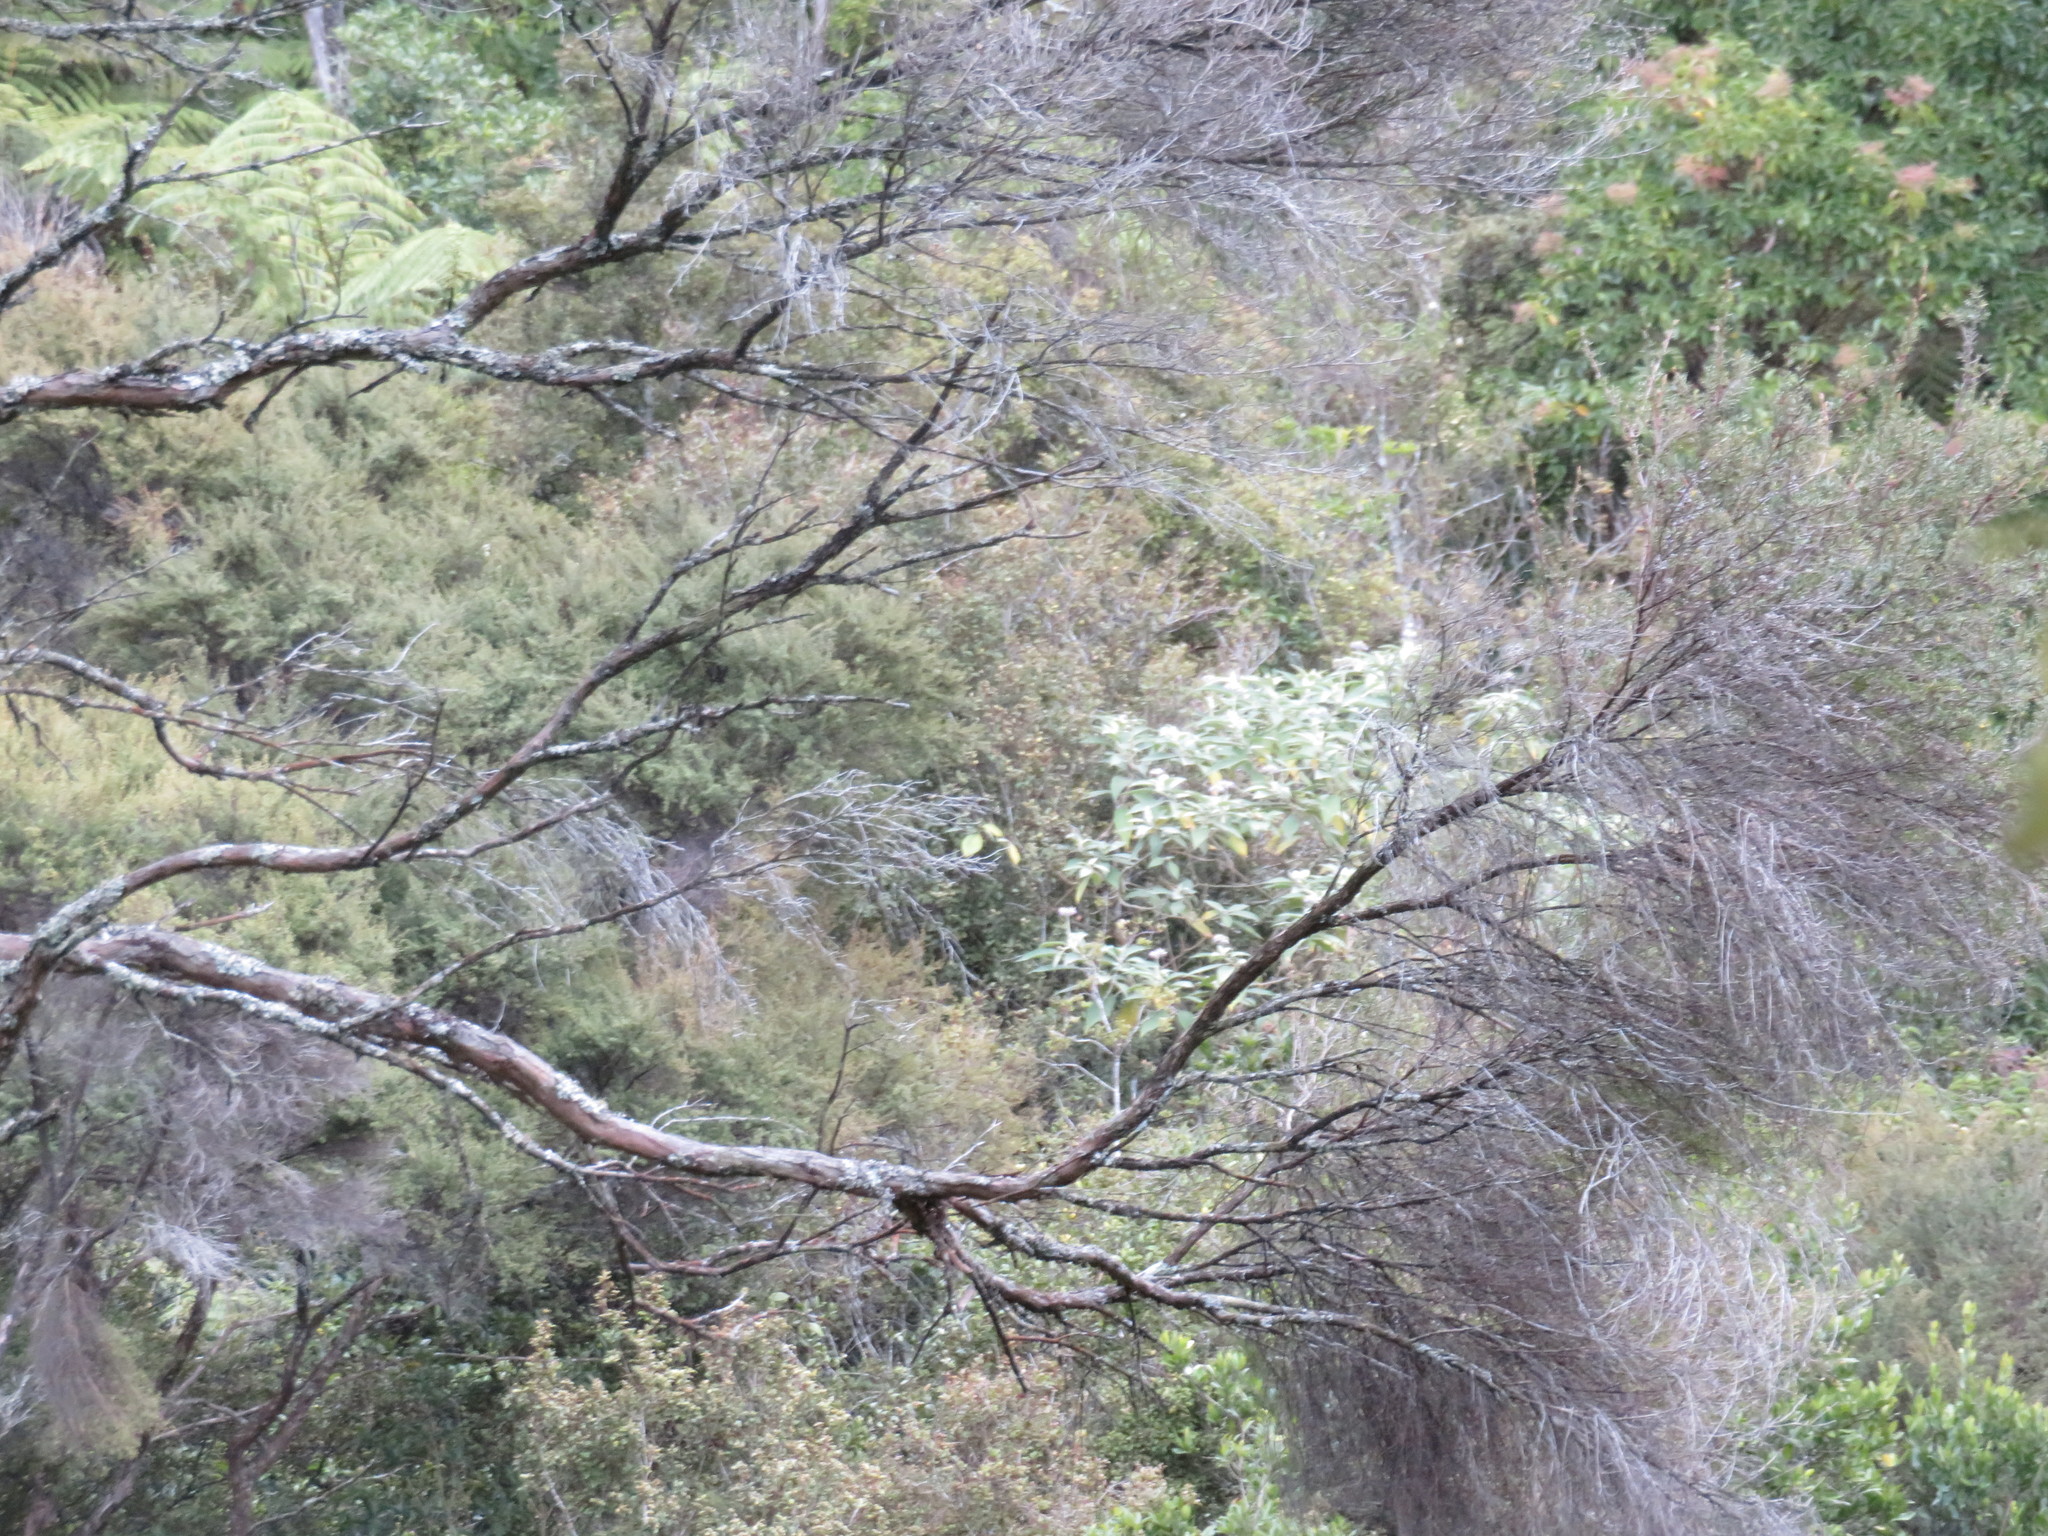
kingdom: Plantae
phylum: Tracheophyta
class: Magnoliopsida
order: Lamiales
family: Oleaceae
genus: Ligustrum
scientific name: Ligustrum lucidum
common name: Glossy privet
